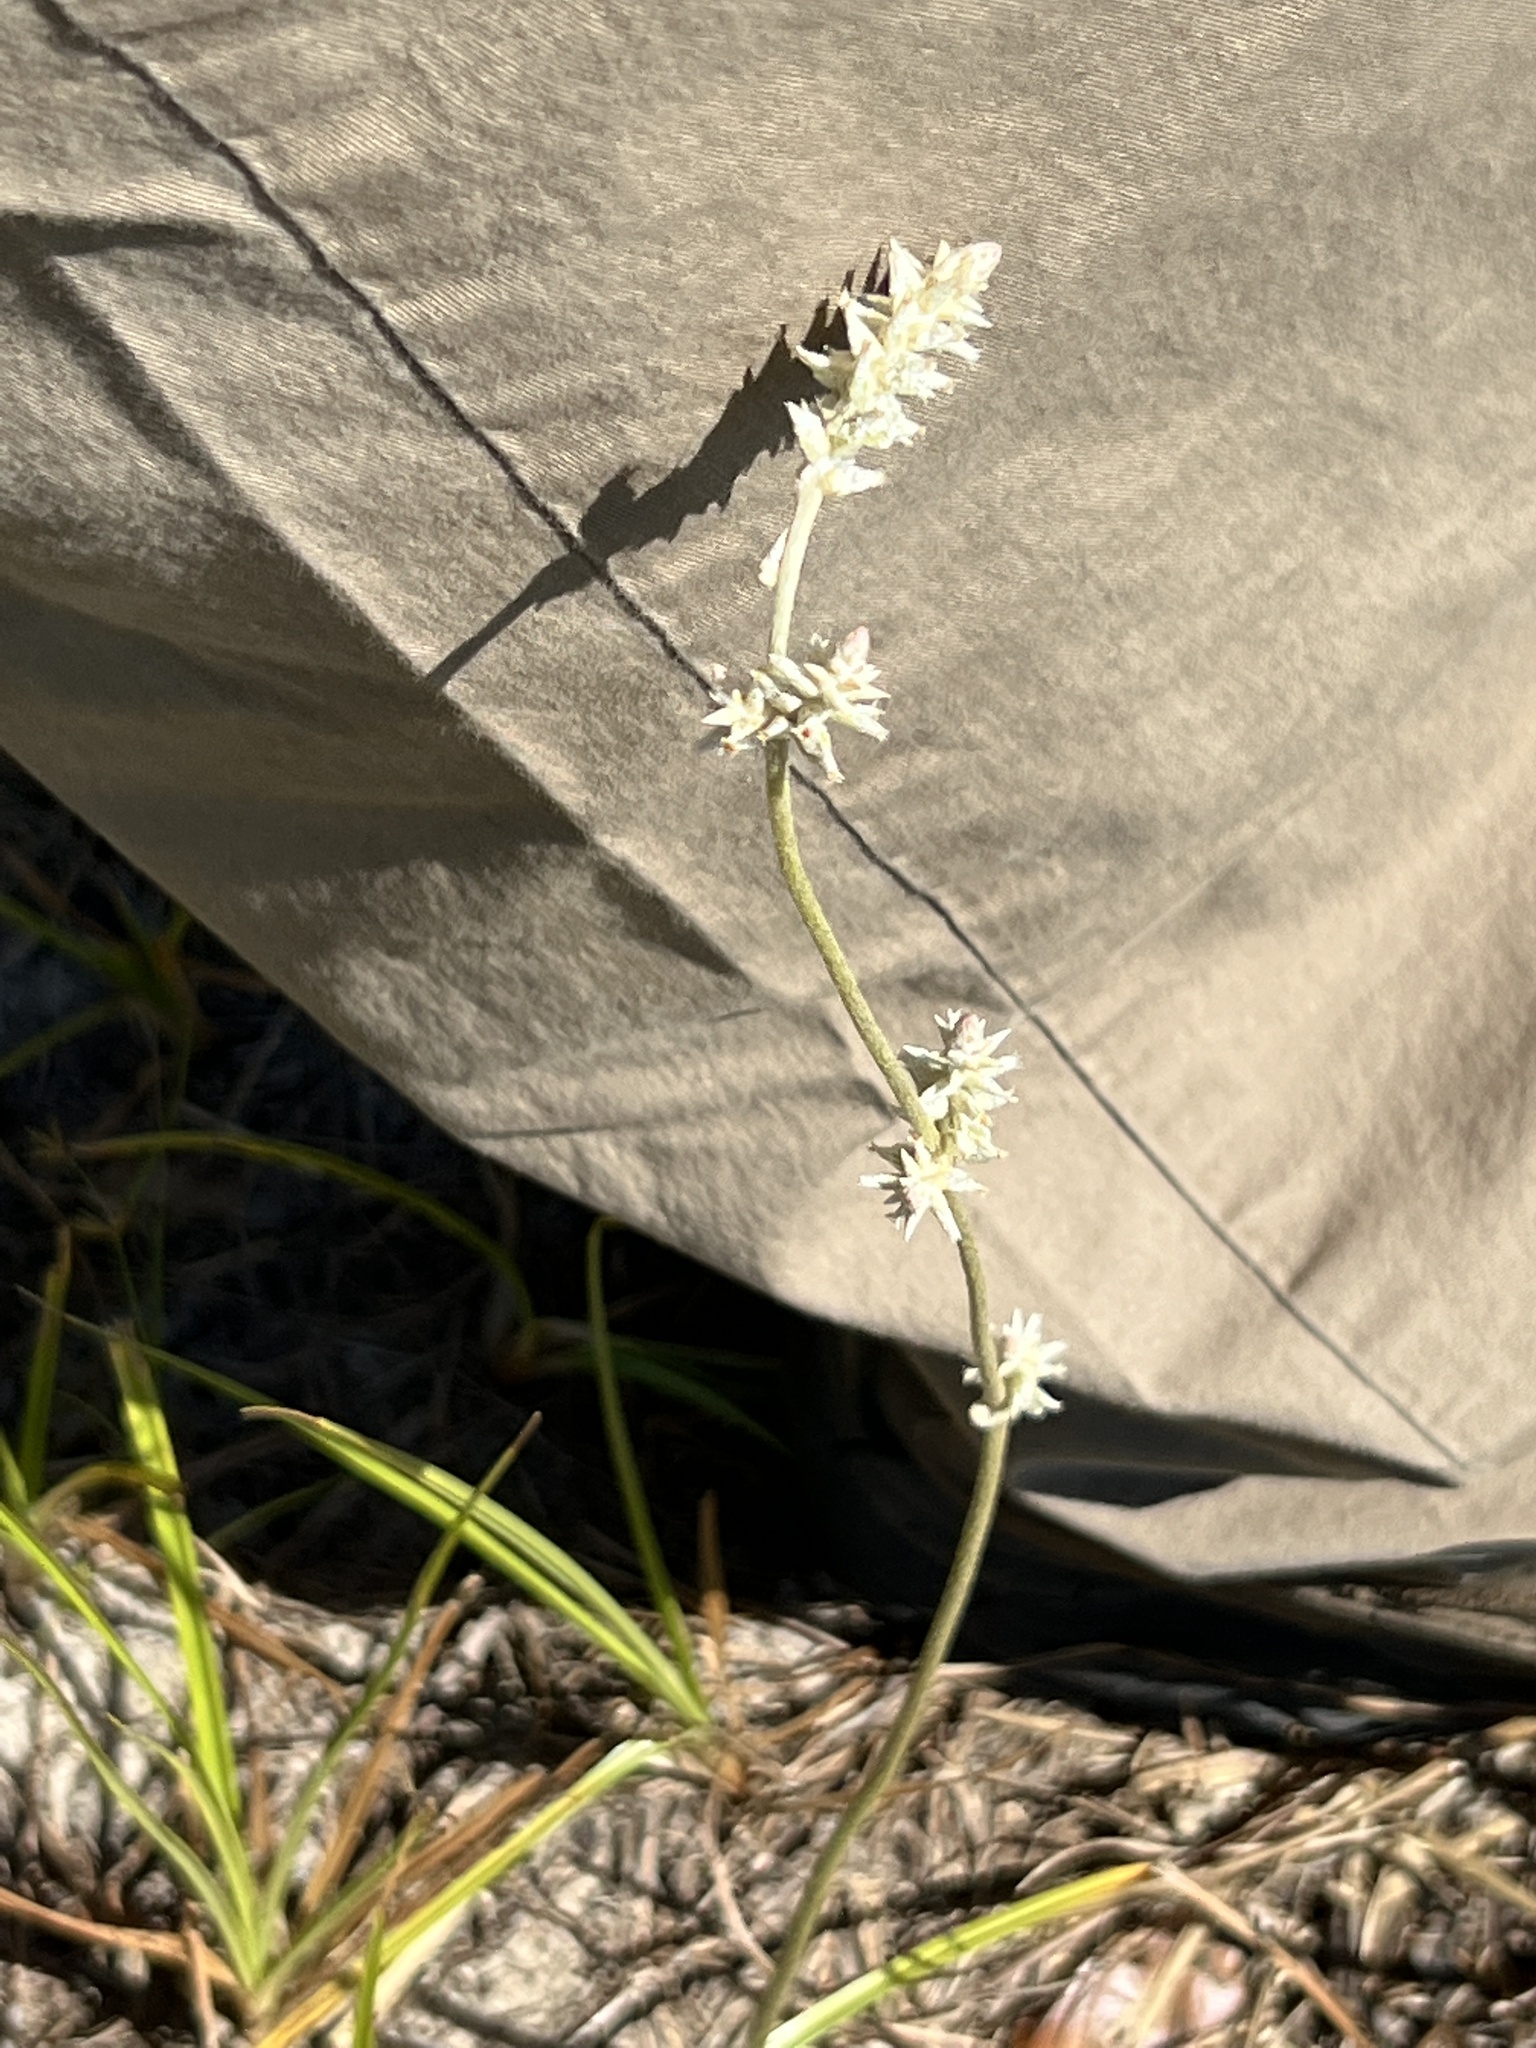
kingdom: Plantae
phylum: Tracheophyta
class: Magnoliopsida
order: Caryophyllales
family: Amaranthaceae
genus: Froelichia
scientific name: Froelichia floridana
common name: Florida snake-cotton
